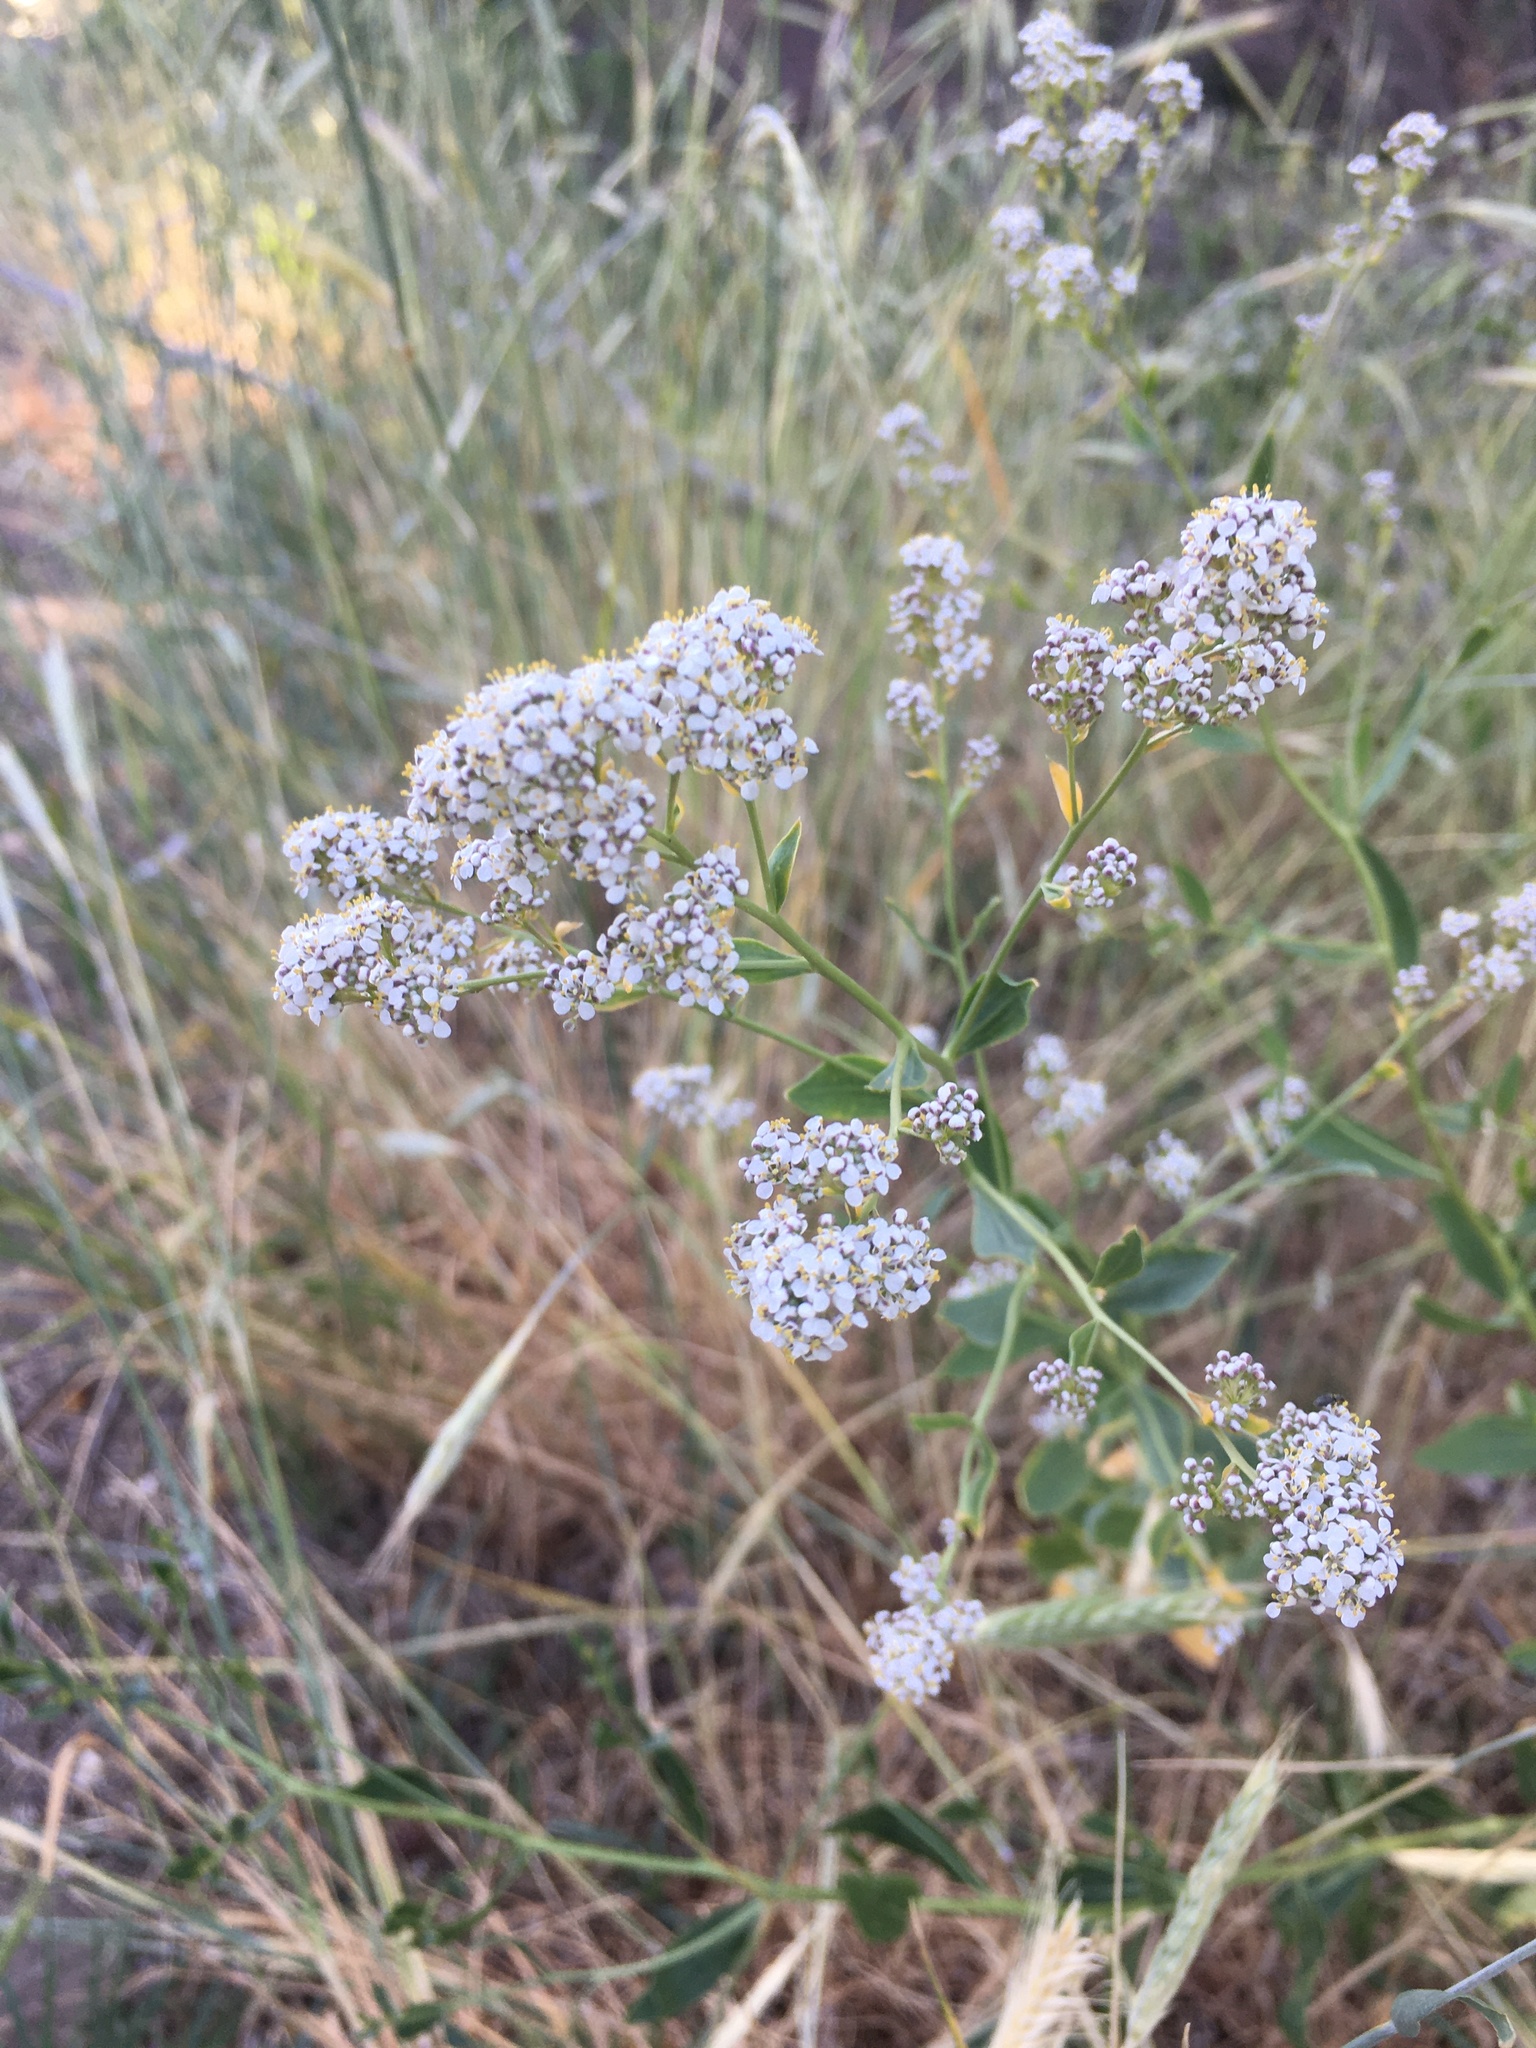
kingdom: Plantae
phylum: Tracheophyta
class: Magnoliopsida
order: Brassicales
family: Brassicaceae
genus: Lepidium
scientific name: Lepidium latifolium
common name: Dittander
